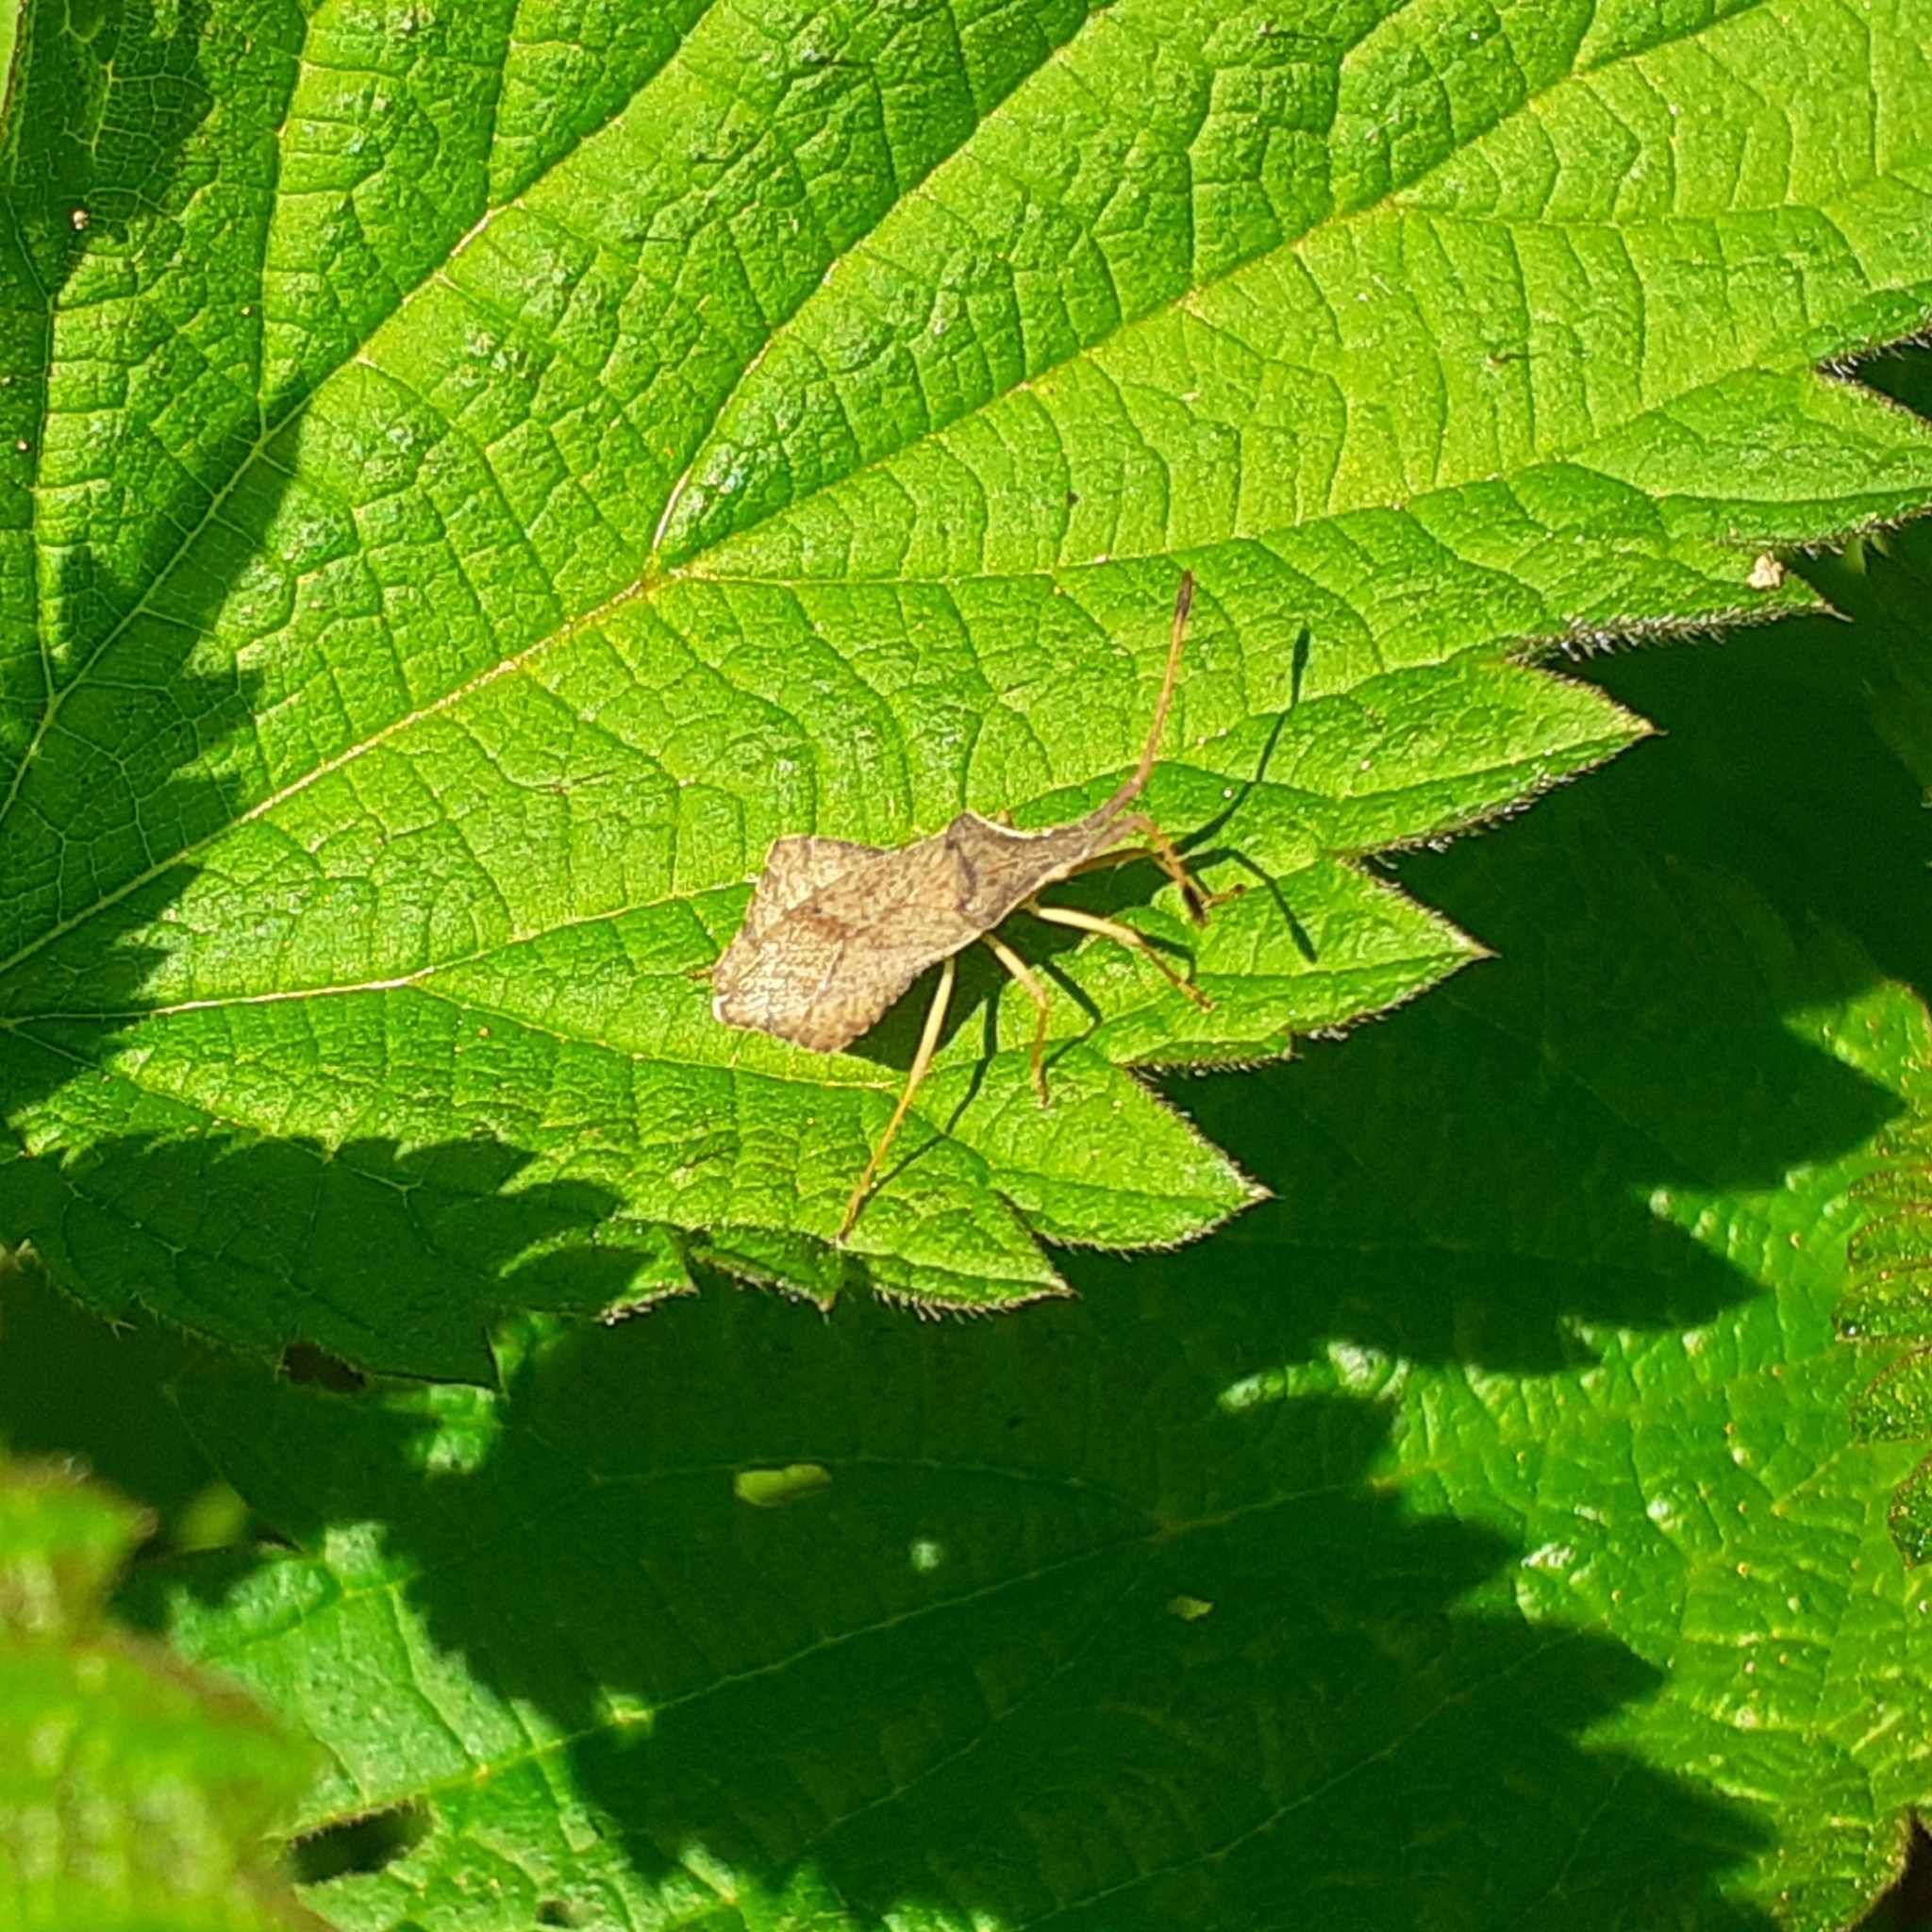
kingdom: Animalia
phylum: Arthropoda
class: Insecta
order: Hemiptera
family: Coreidae
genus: Syromastus
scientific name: Syromastus rhombeus
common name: Rhombic leatherbug
